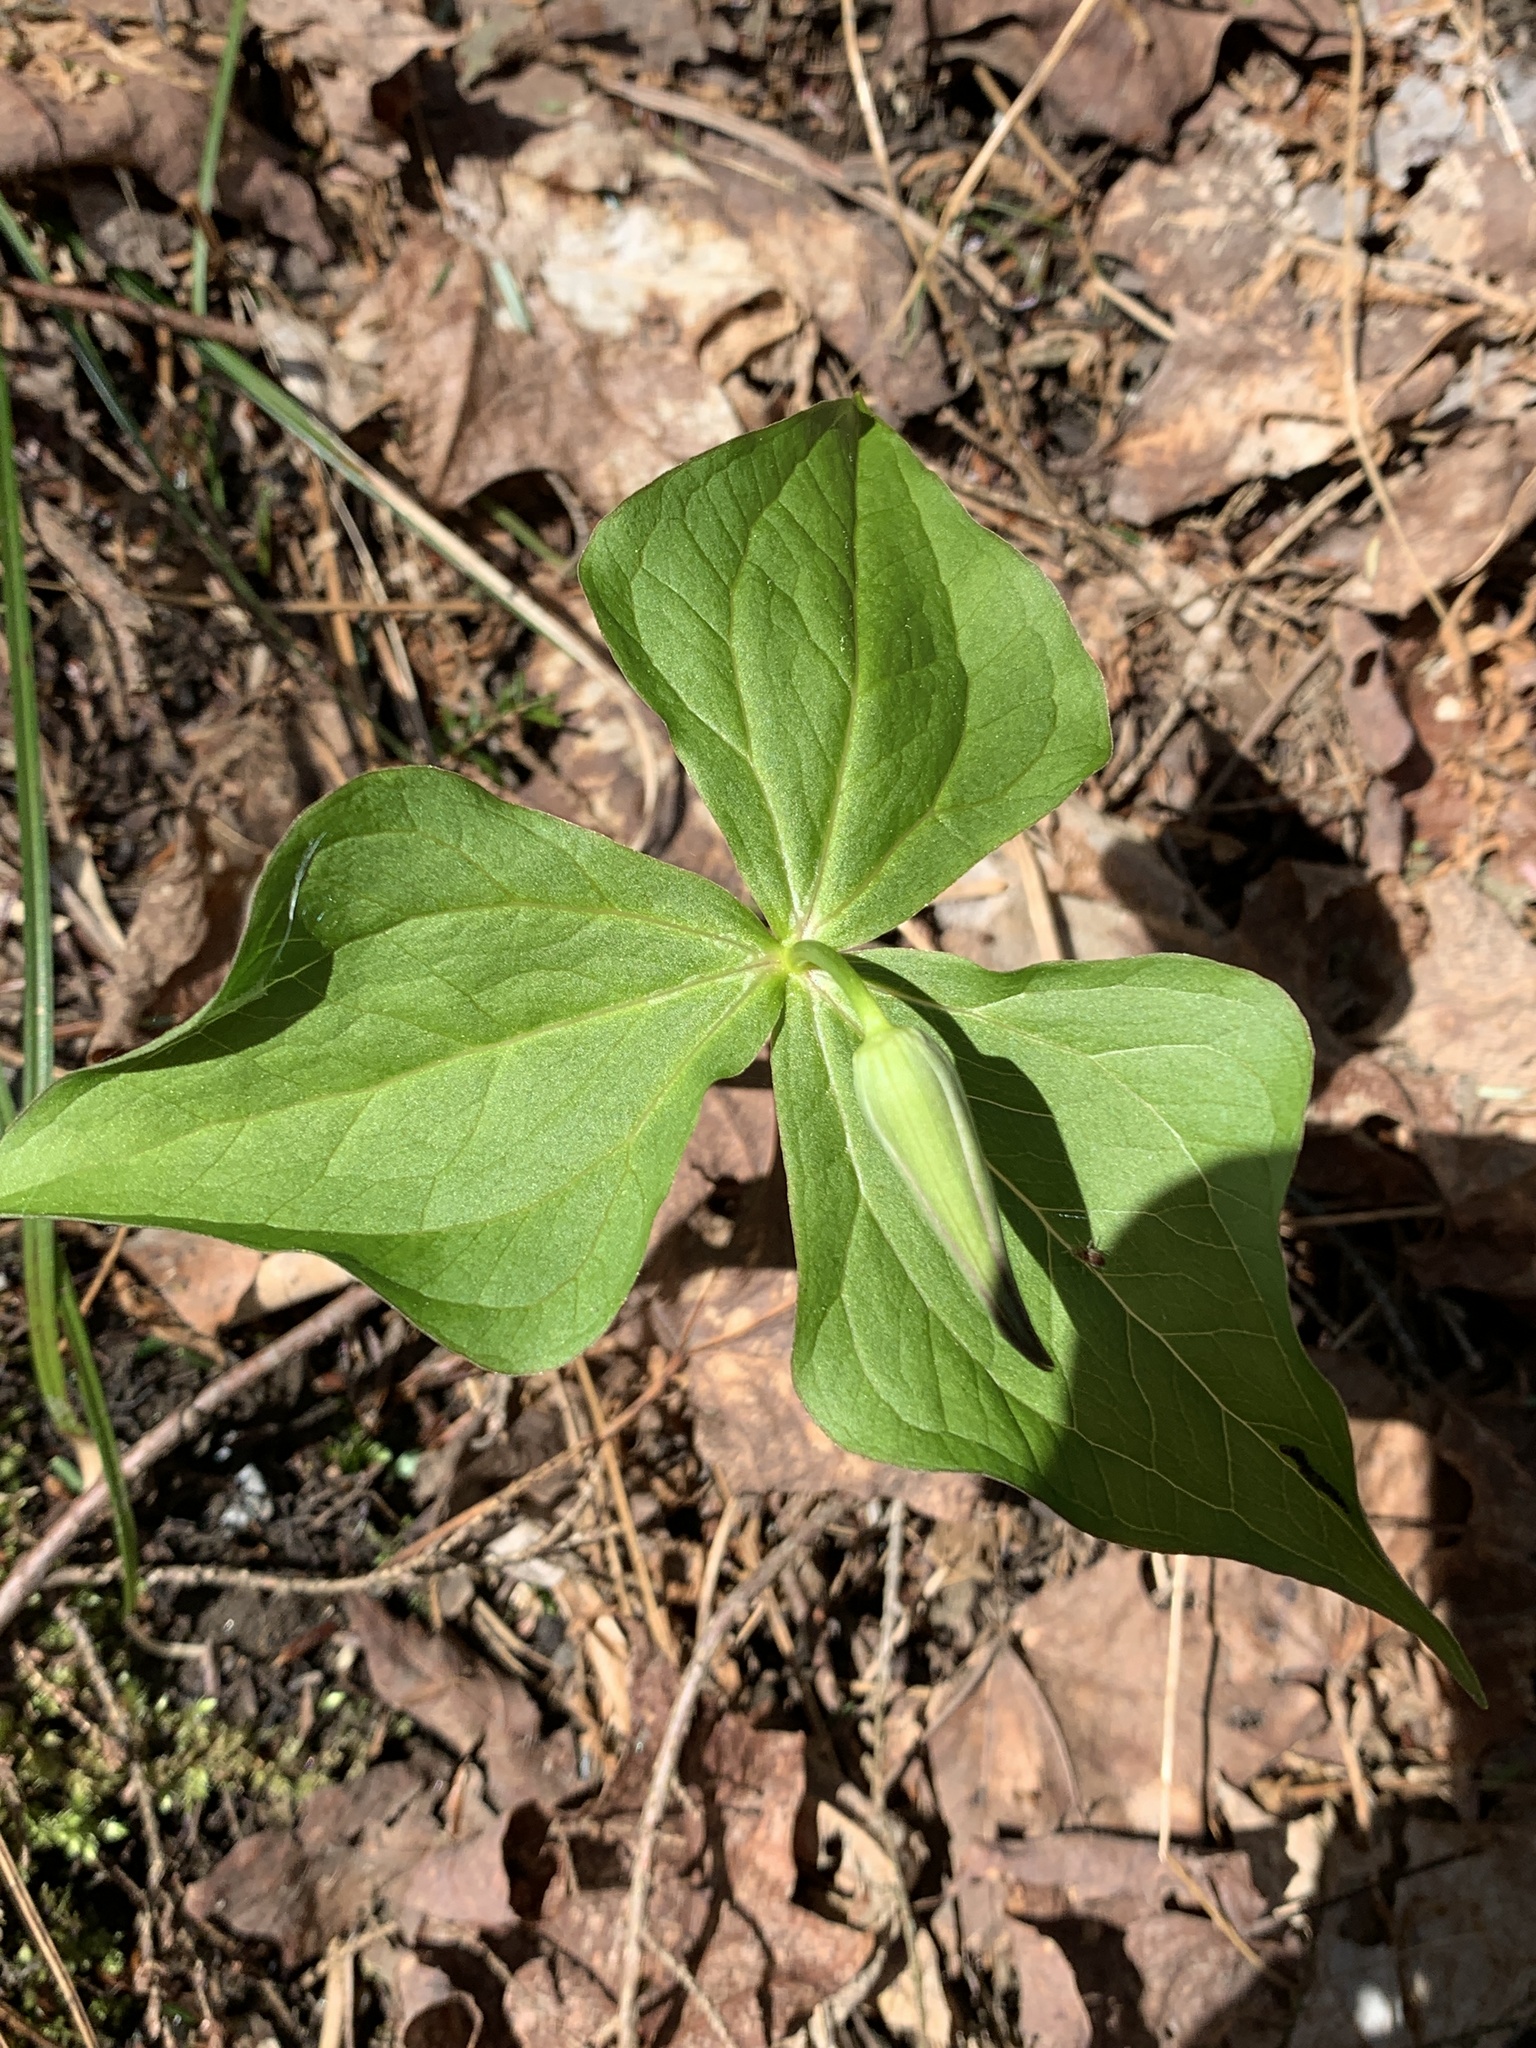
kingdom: Plantae
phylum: Tracheophyta
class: Liliopsida
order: Liliales
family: Melanthiaceae
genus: Trillium
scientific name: Trillium erectum
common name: Purple trillium
